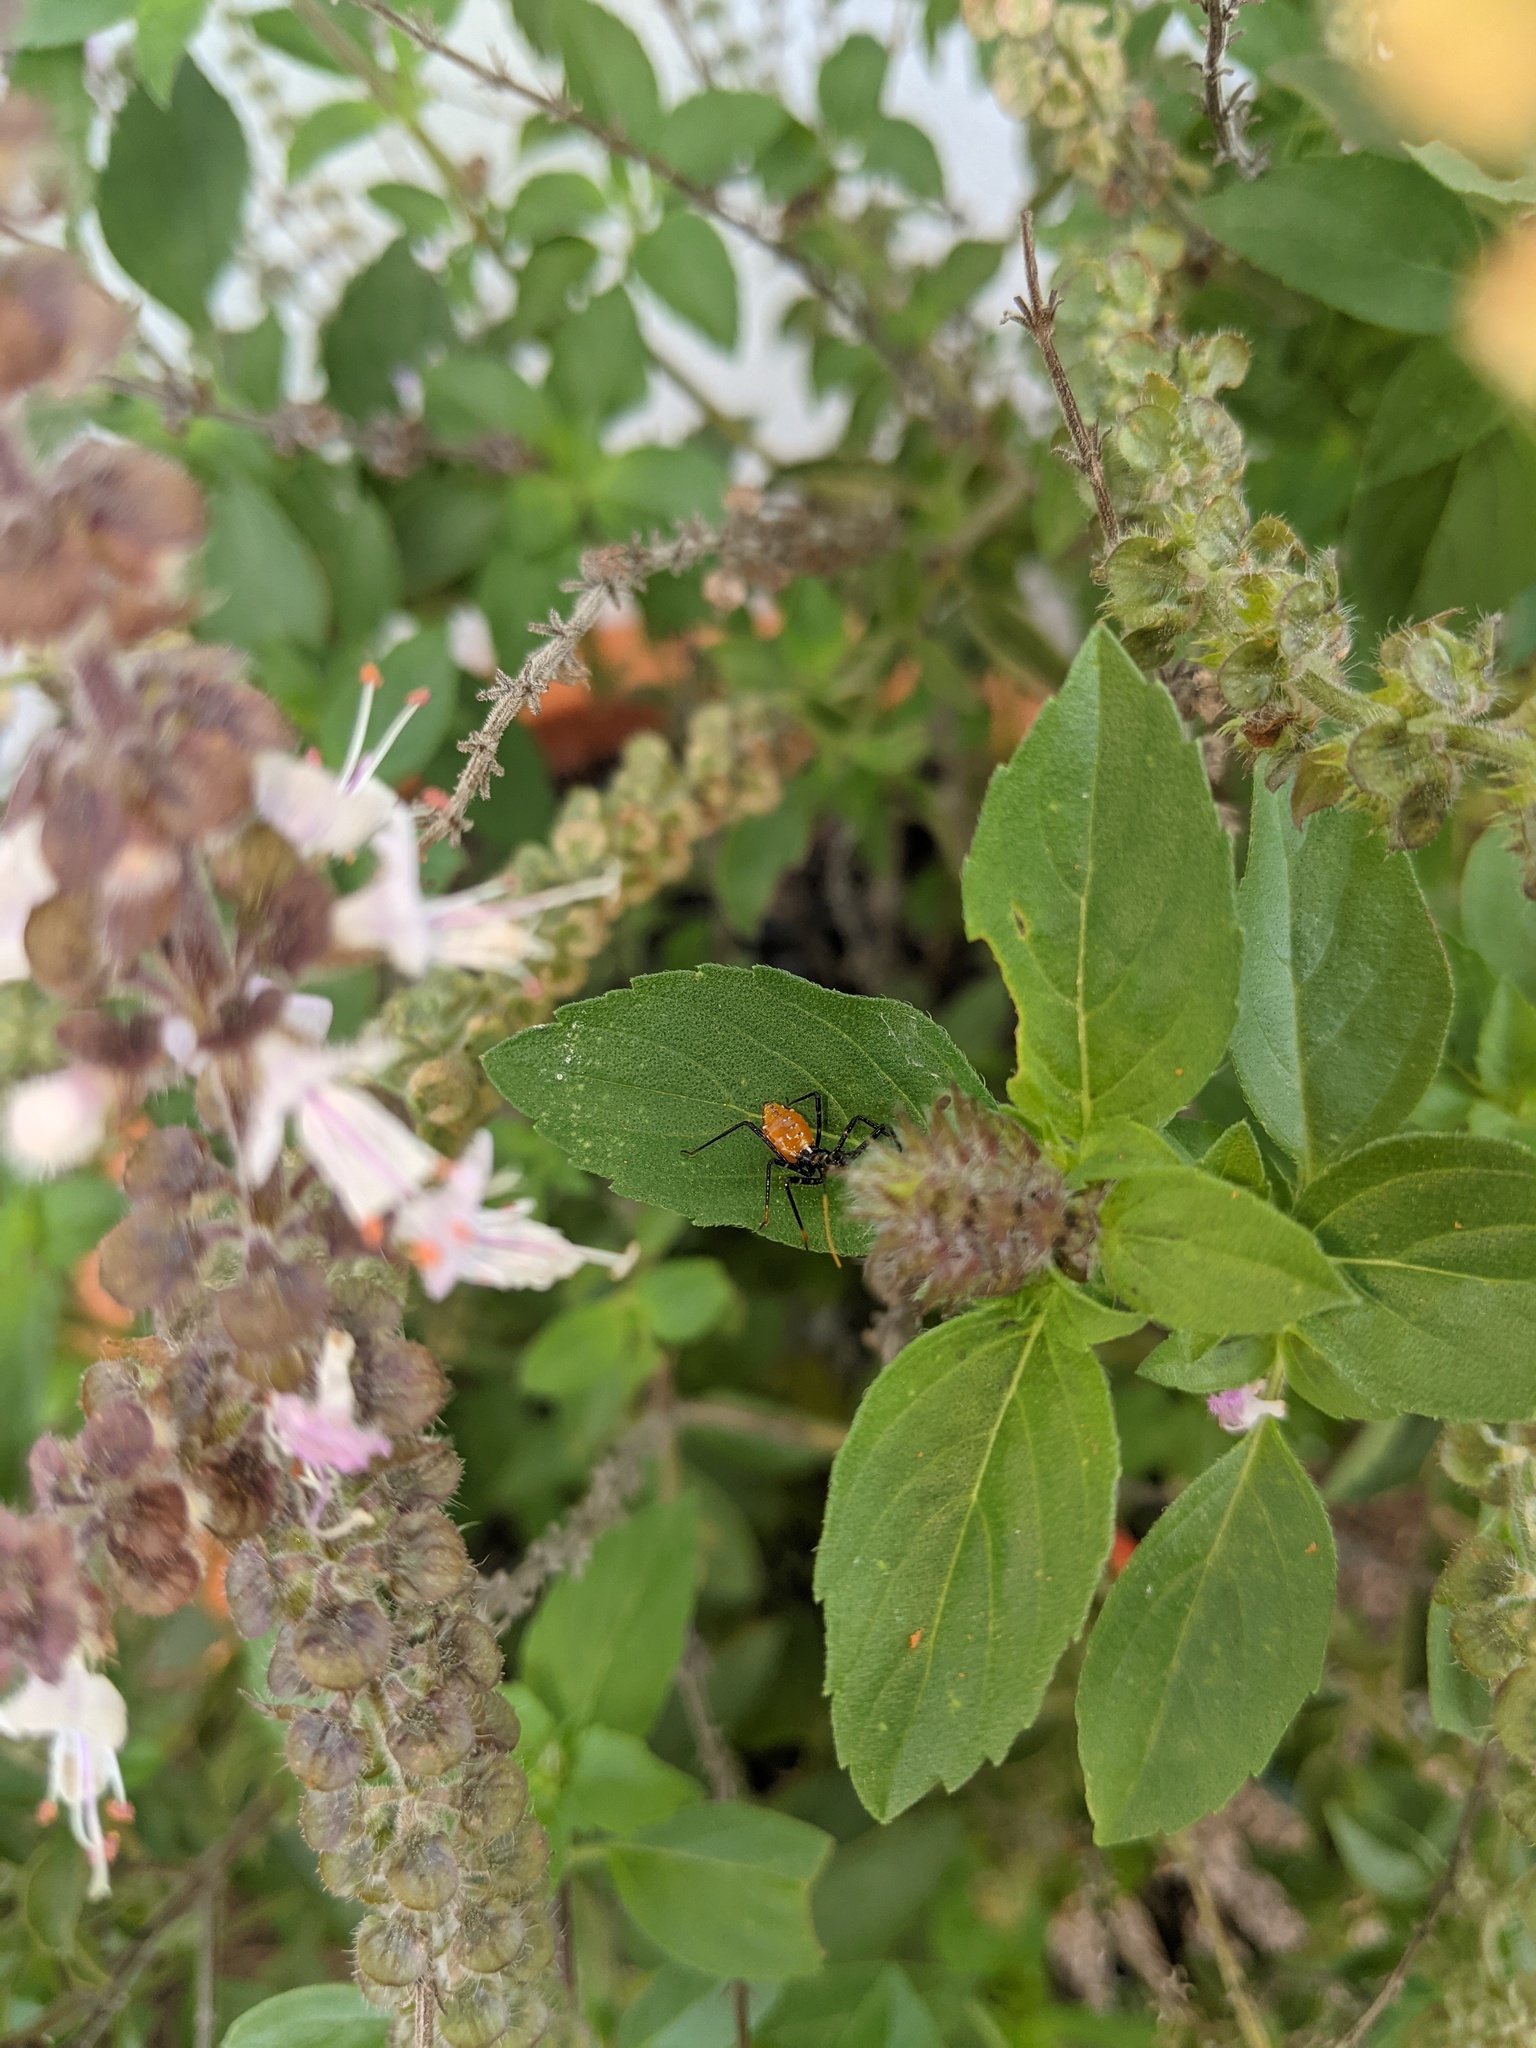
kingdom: Animalia
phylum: Arthropoda
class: Insecta
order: Hemiptera
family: Reduviidae
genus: Pristhesancus
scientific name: Pristhesancus plagipennis
